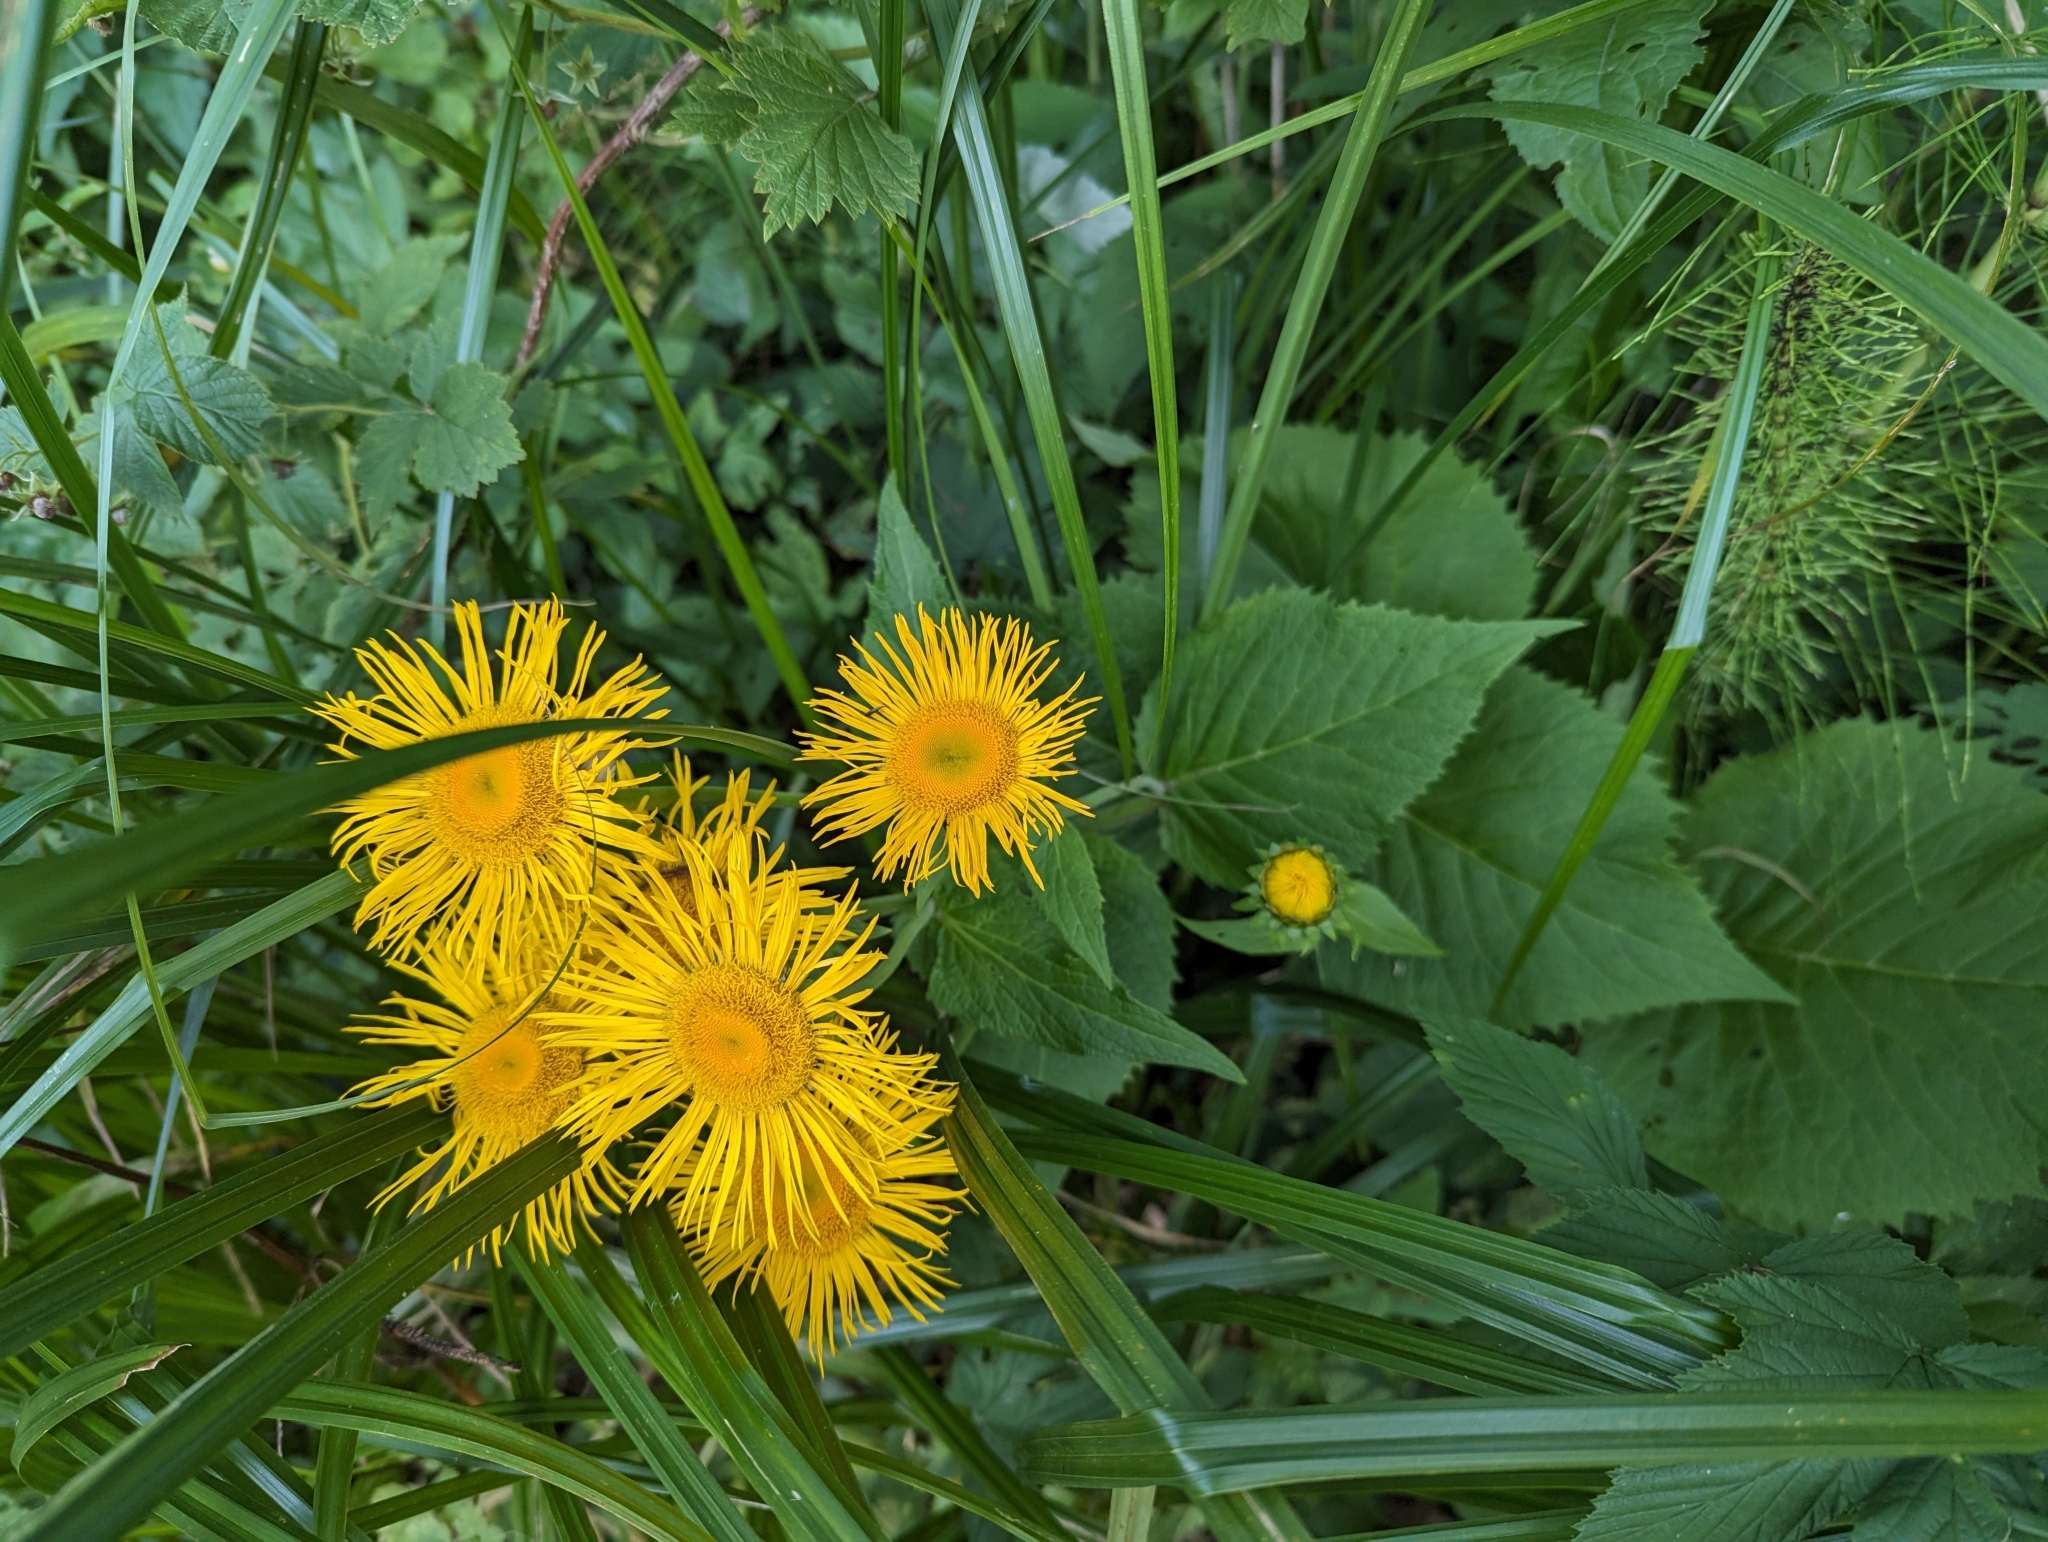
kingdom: Plantae
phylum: Tracheophyta
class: Magnoliopsida
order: Asterales
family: Asteraceae
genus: Telekia
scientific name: Telekia speciosa
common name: Yellow oxeye
